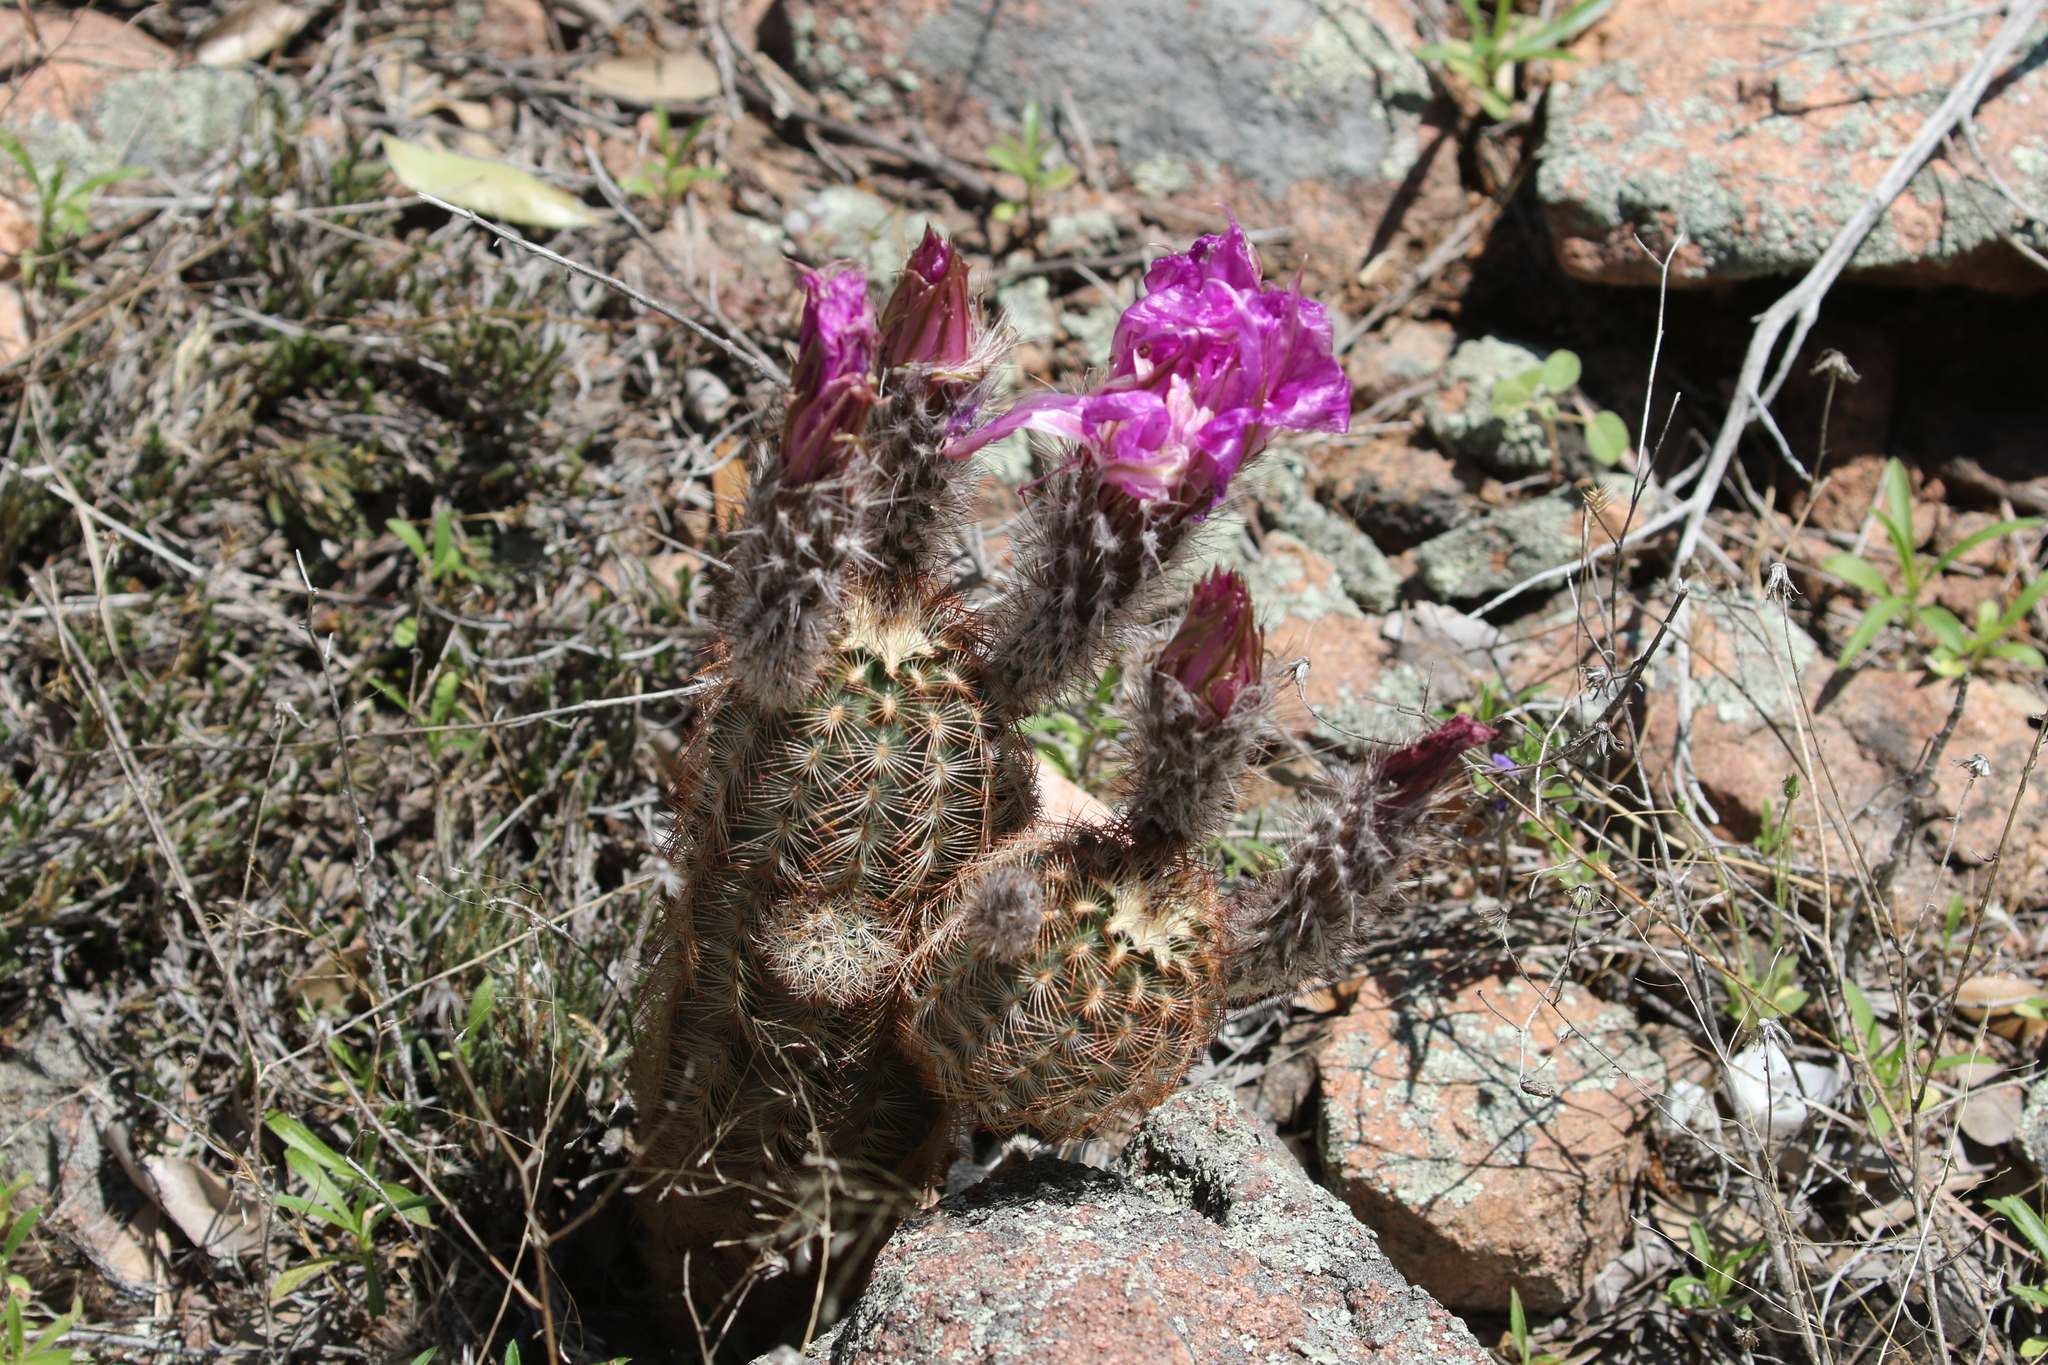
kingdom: Plantae
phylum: Tracheophyta
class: Magnoliopsida
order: Caryophyllales
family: Cactaceae
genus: Echinocereus
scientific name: Echinocereus reichenbachii
